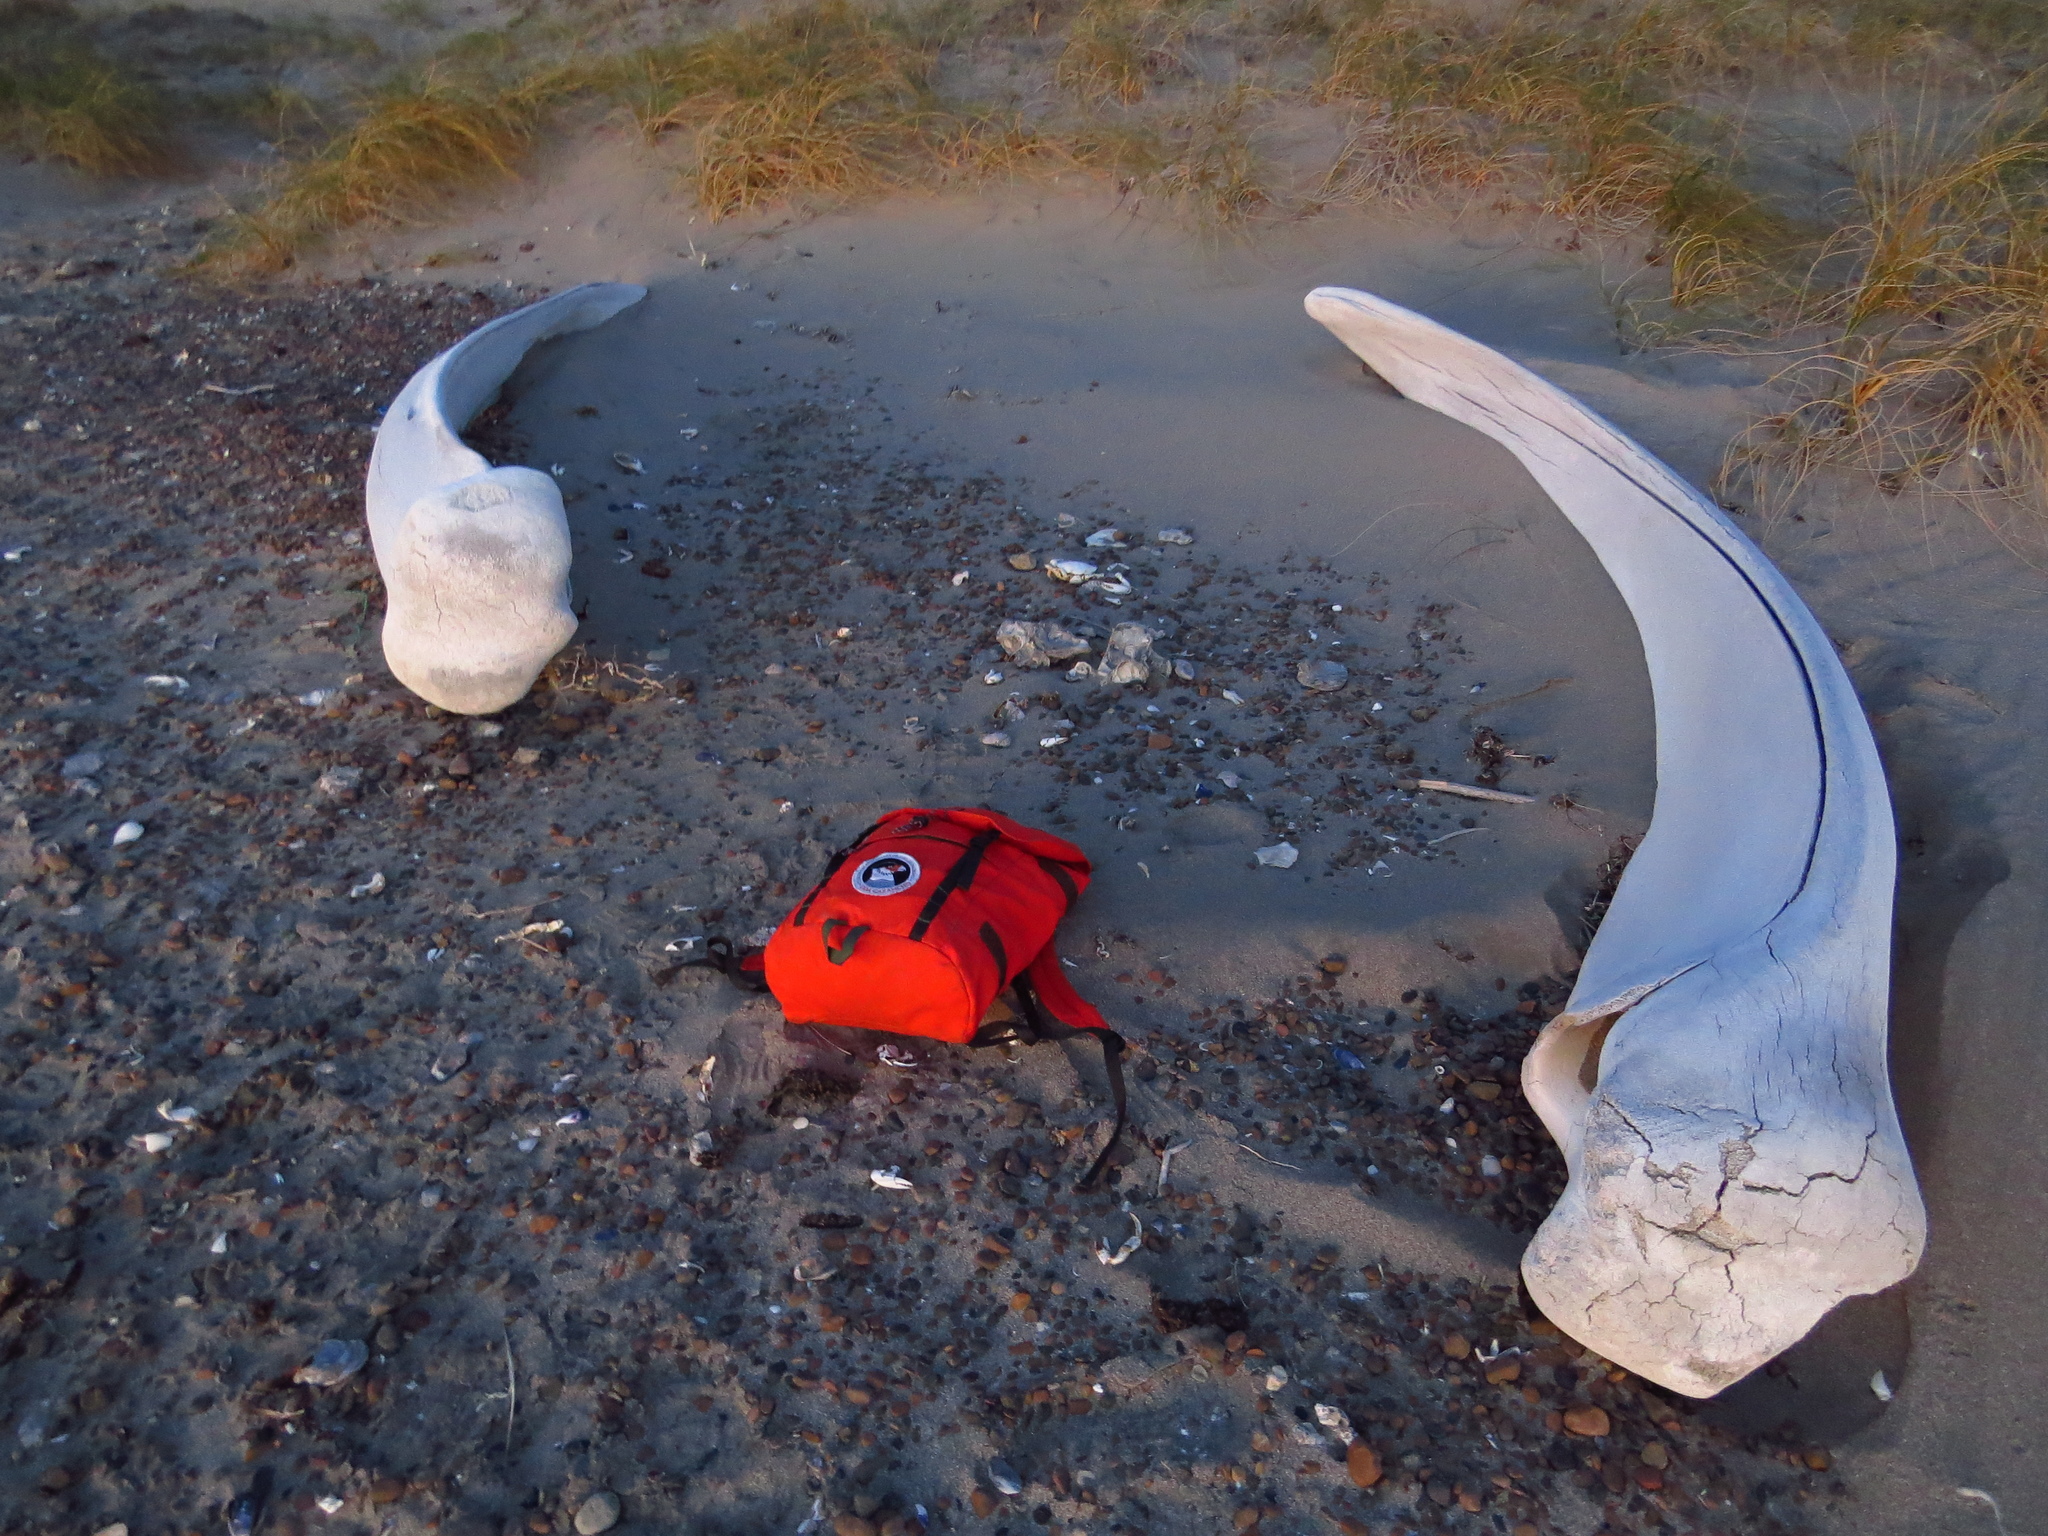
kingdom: Animalia
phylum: Chordata
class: Mammalia
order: Cetacea
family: Balaenidae
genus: Eubalaena
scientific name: Eubalaena australis
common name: Southern right whale
